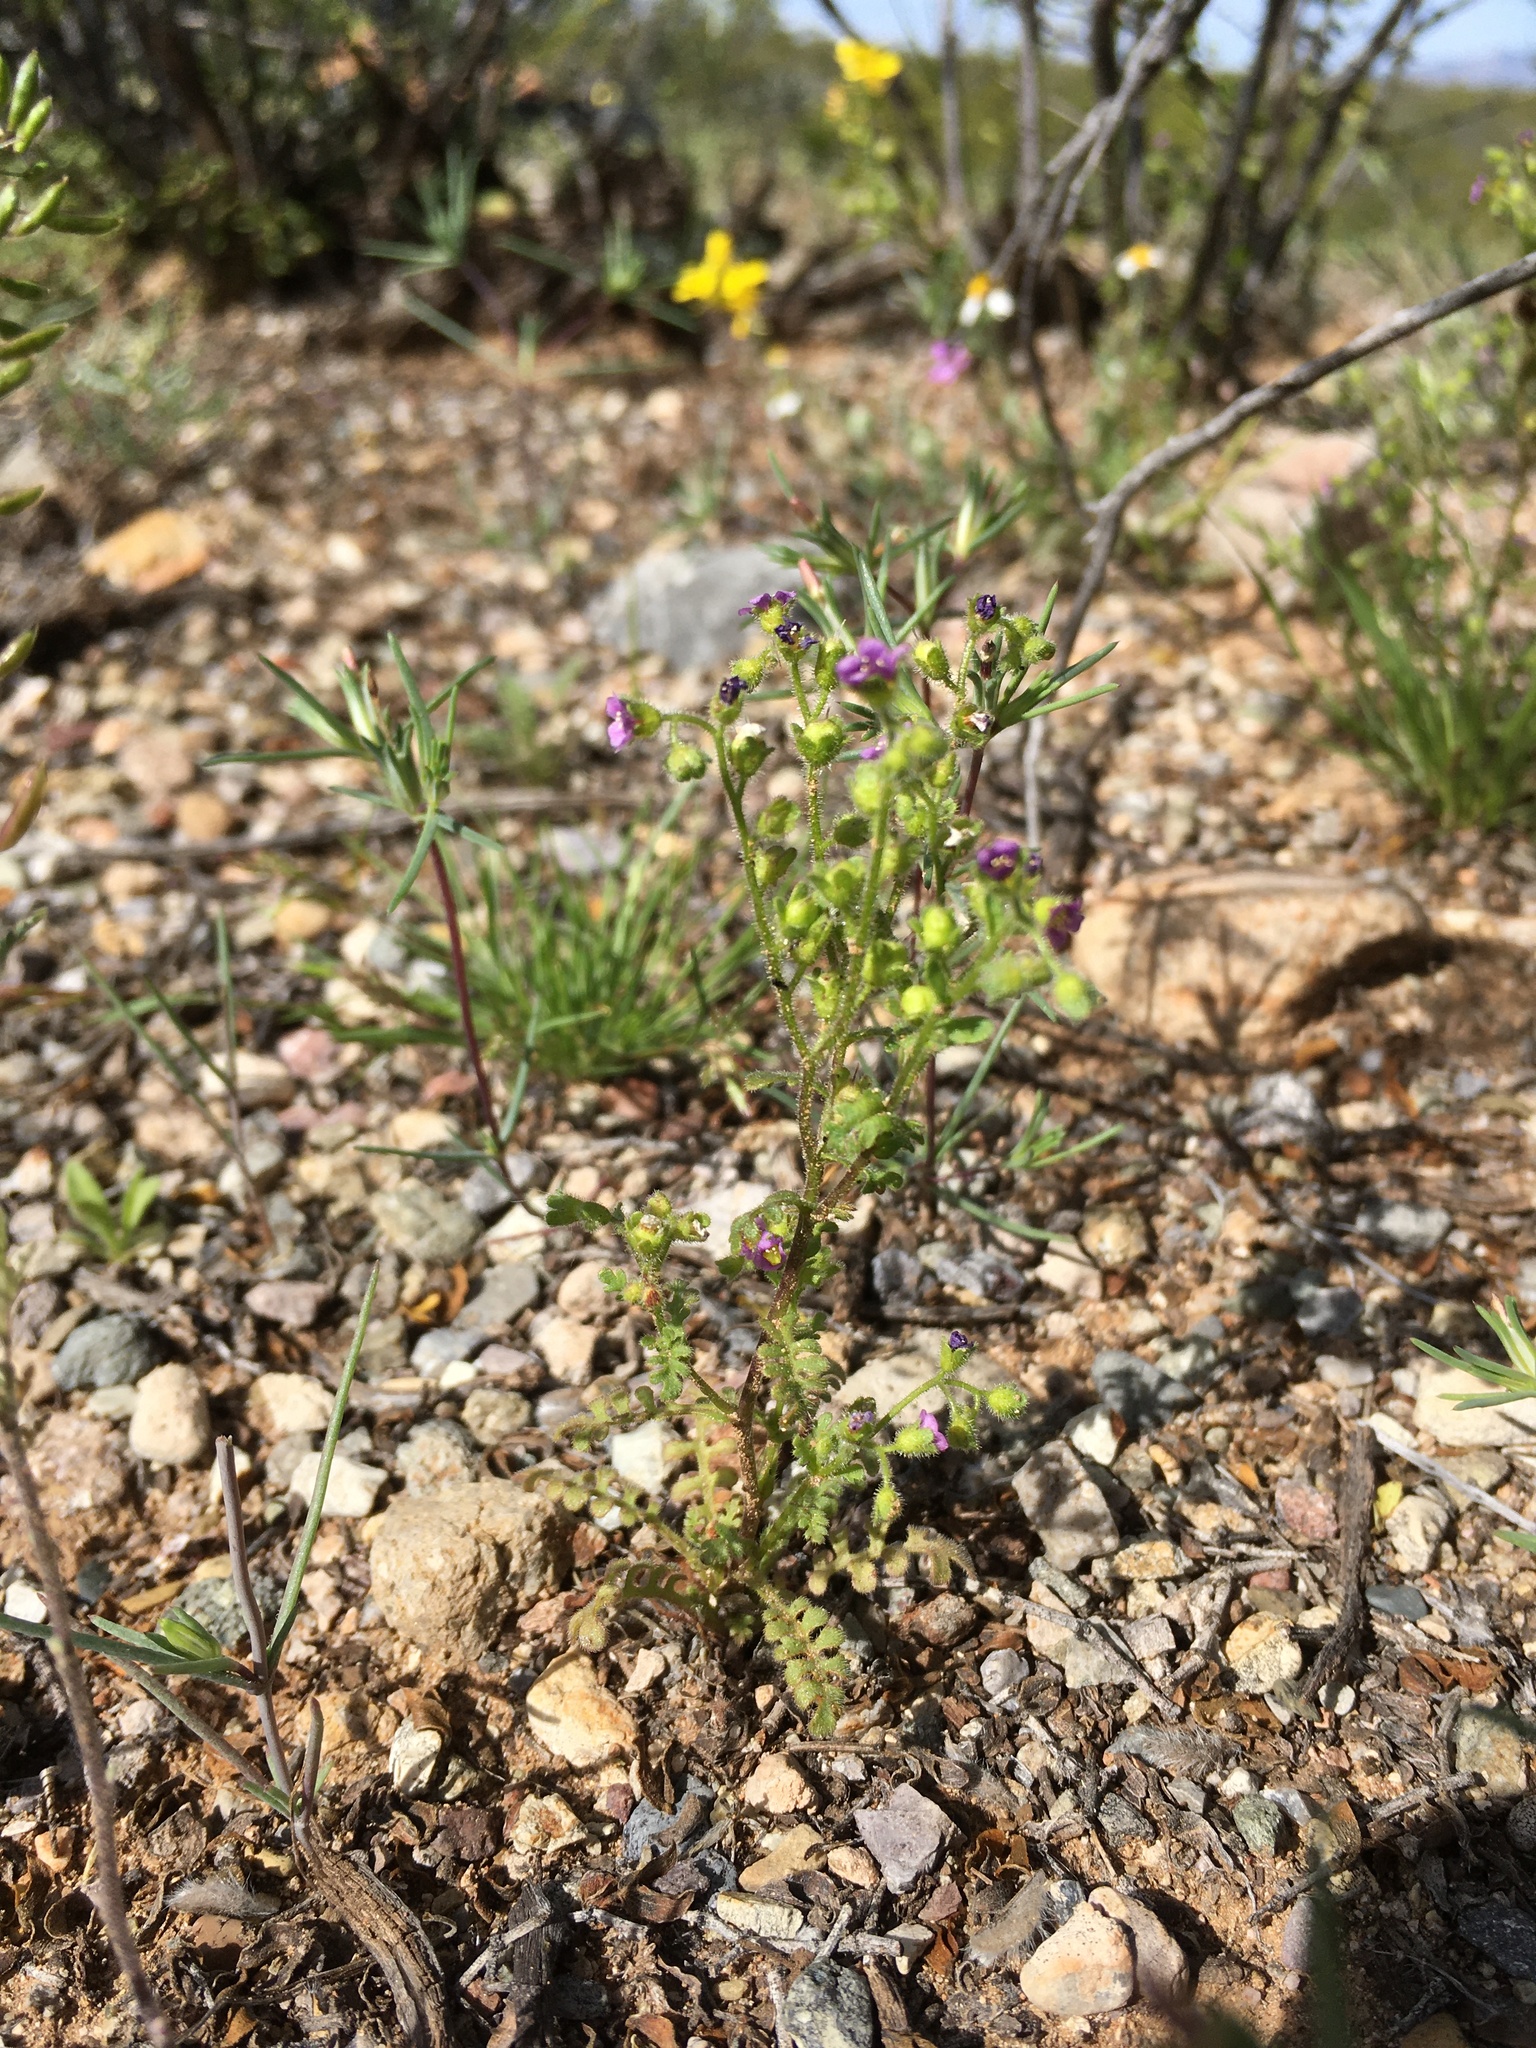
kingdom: Plantae
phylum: Tracheophyta
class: Magnoliopsida
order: Boraginales
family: Hydrophyllaceae
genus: Eucrypta
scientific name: Eucrypta micrantha
